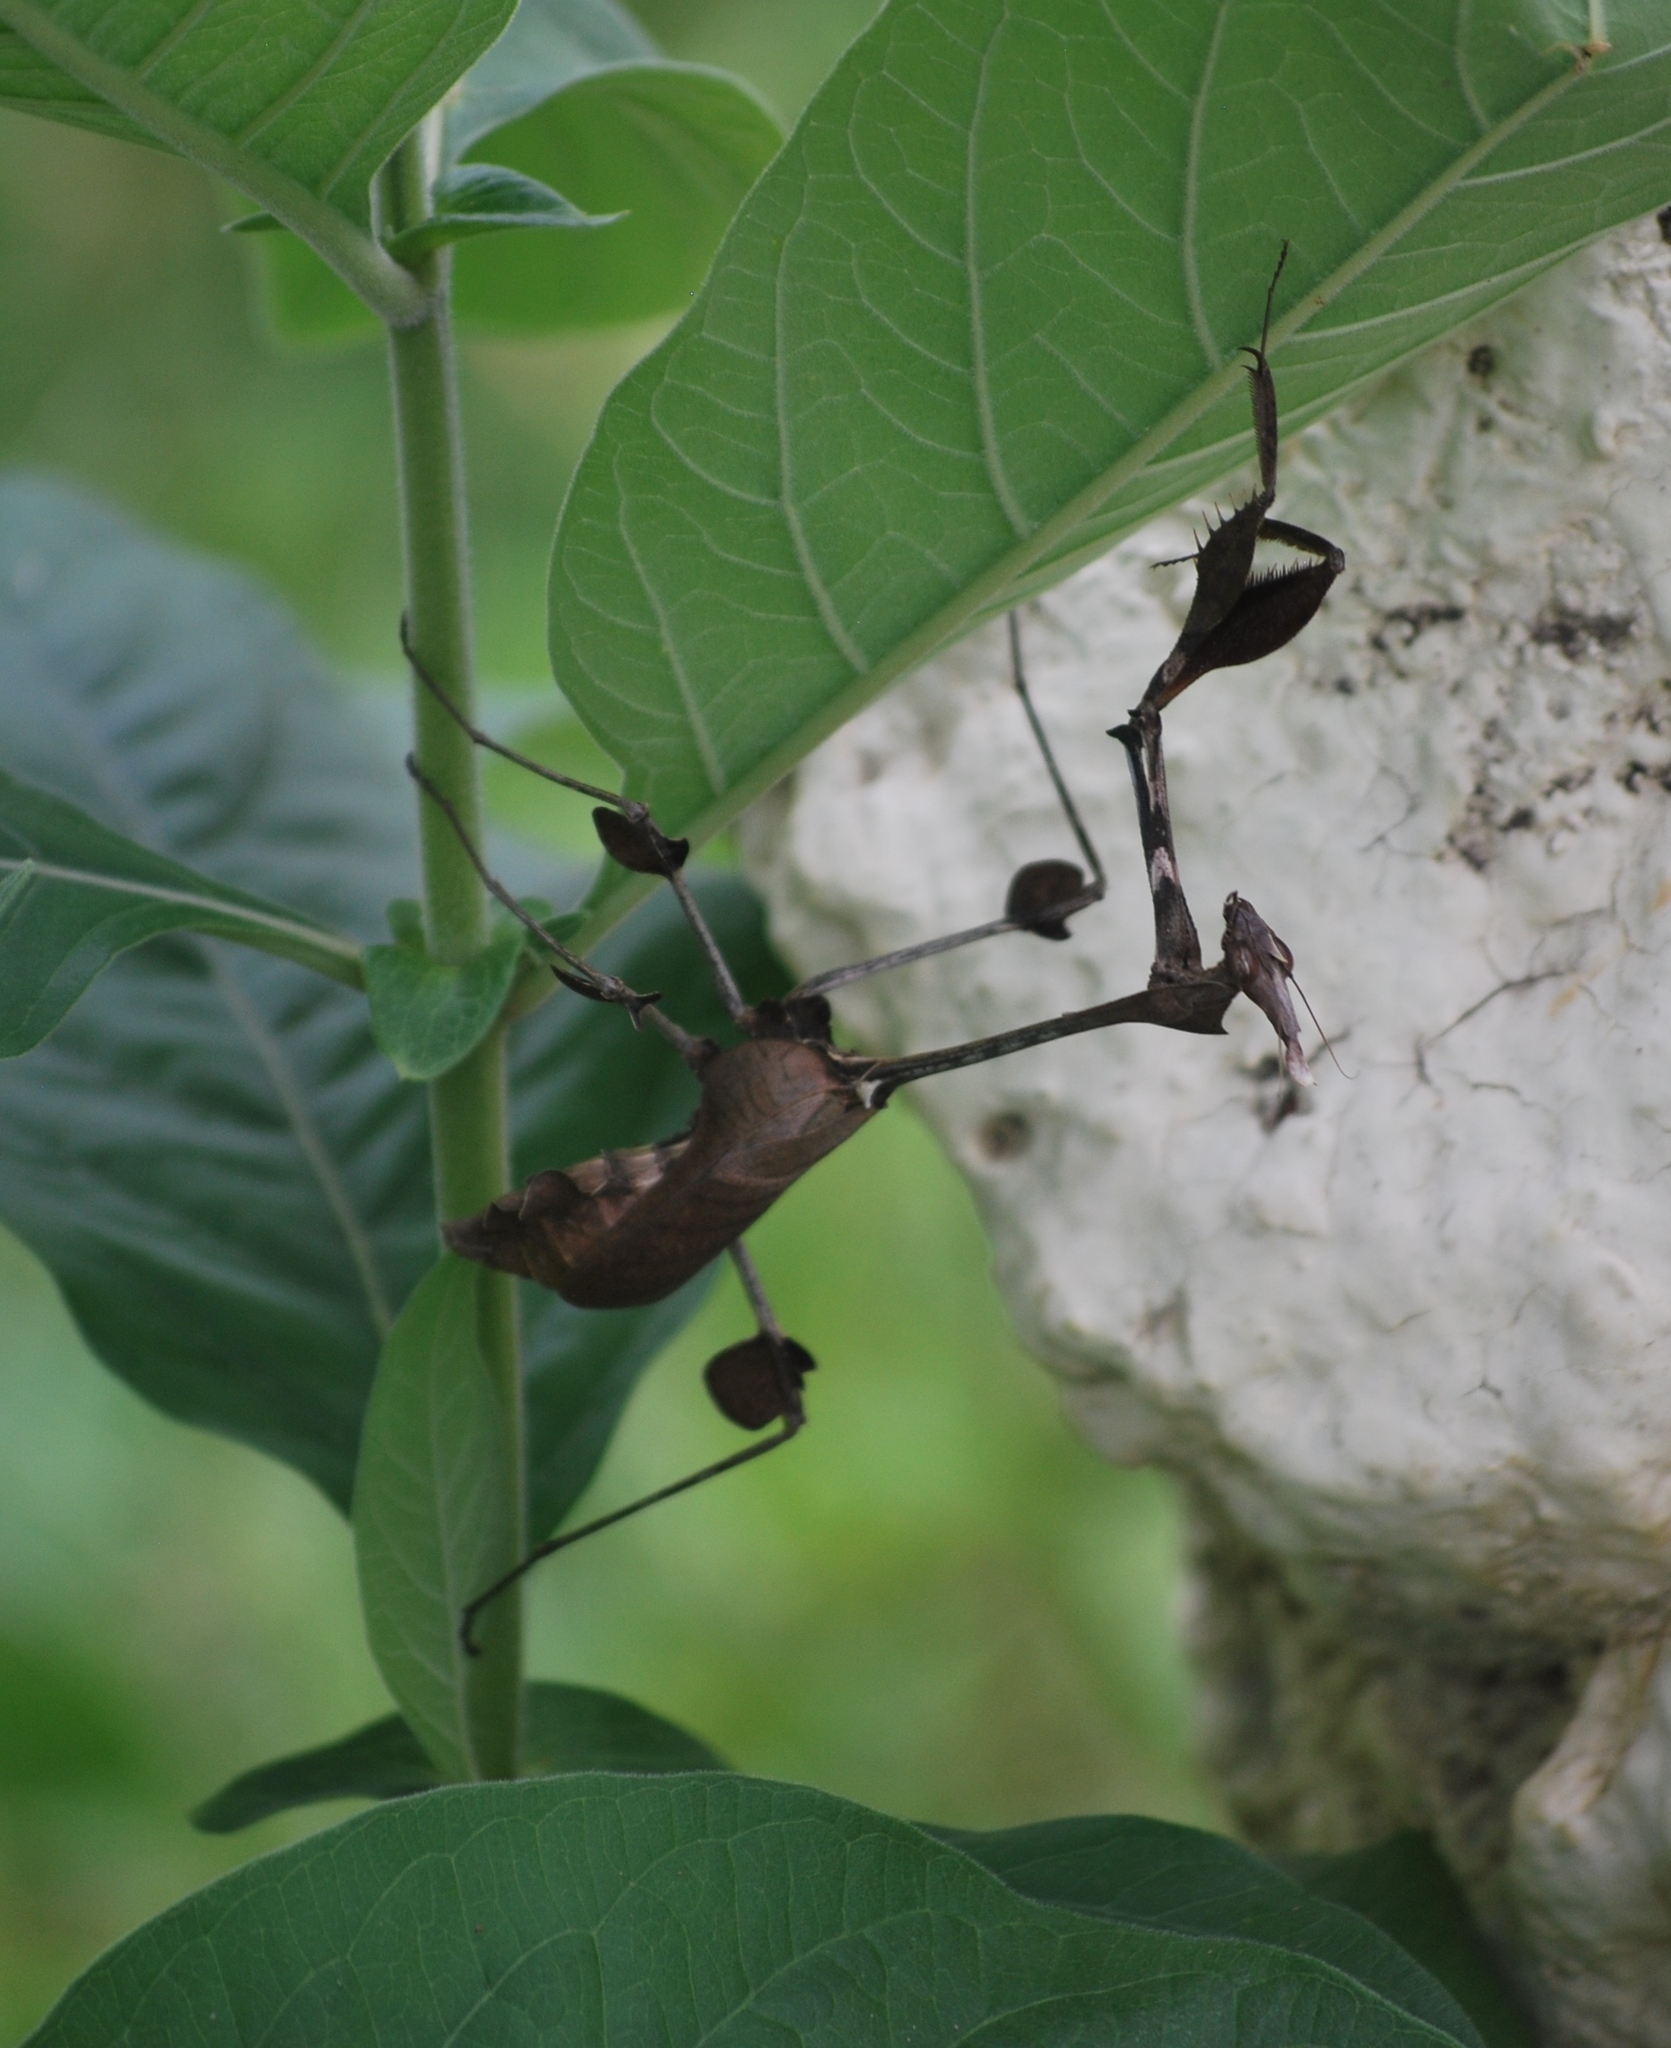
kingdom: Animalia
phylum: Arthropoda
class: Insecta
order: Mantodea
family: Empusidae
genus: Gongylus
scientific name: Gongylus gongylodes
